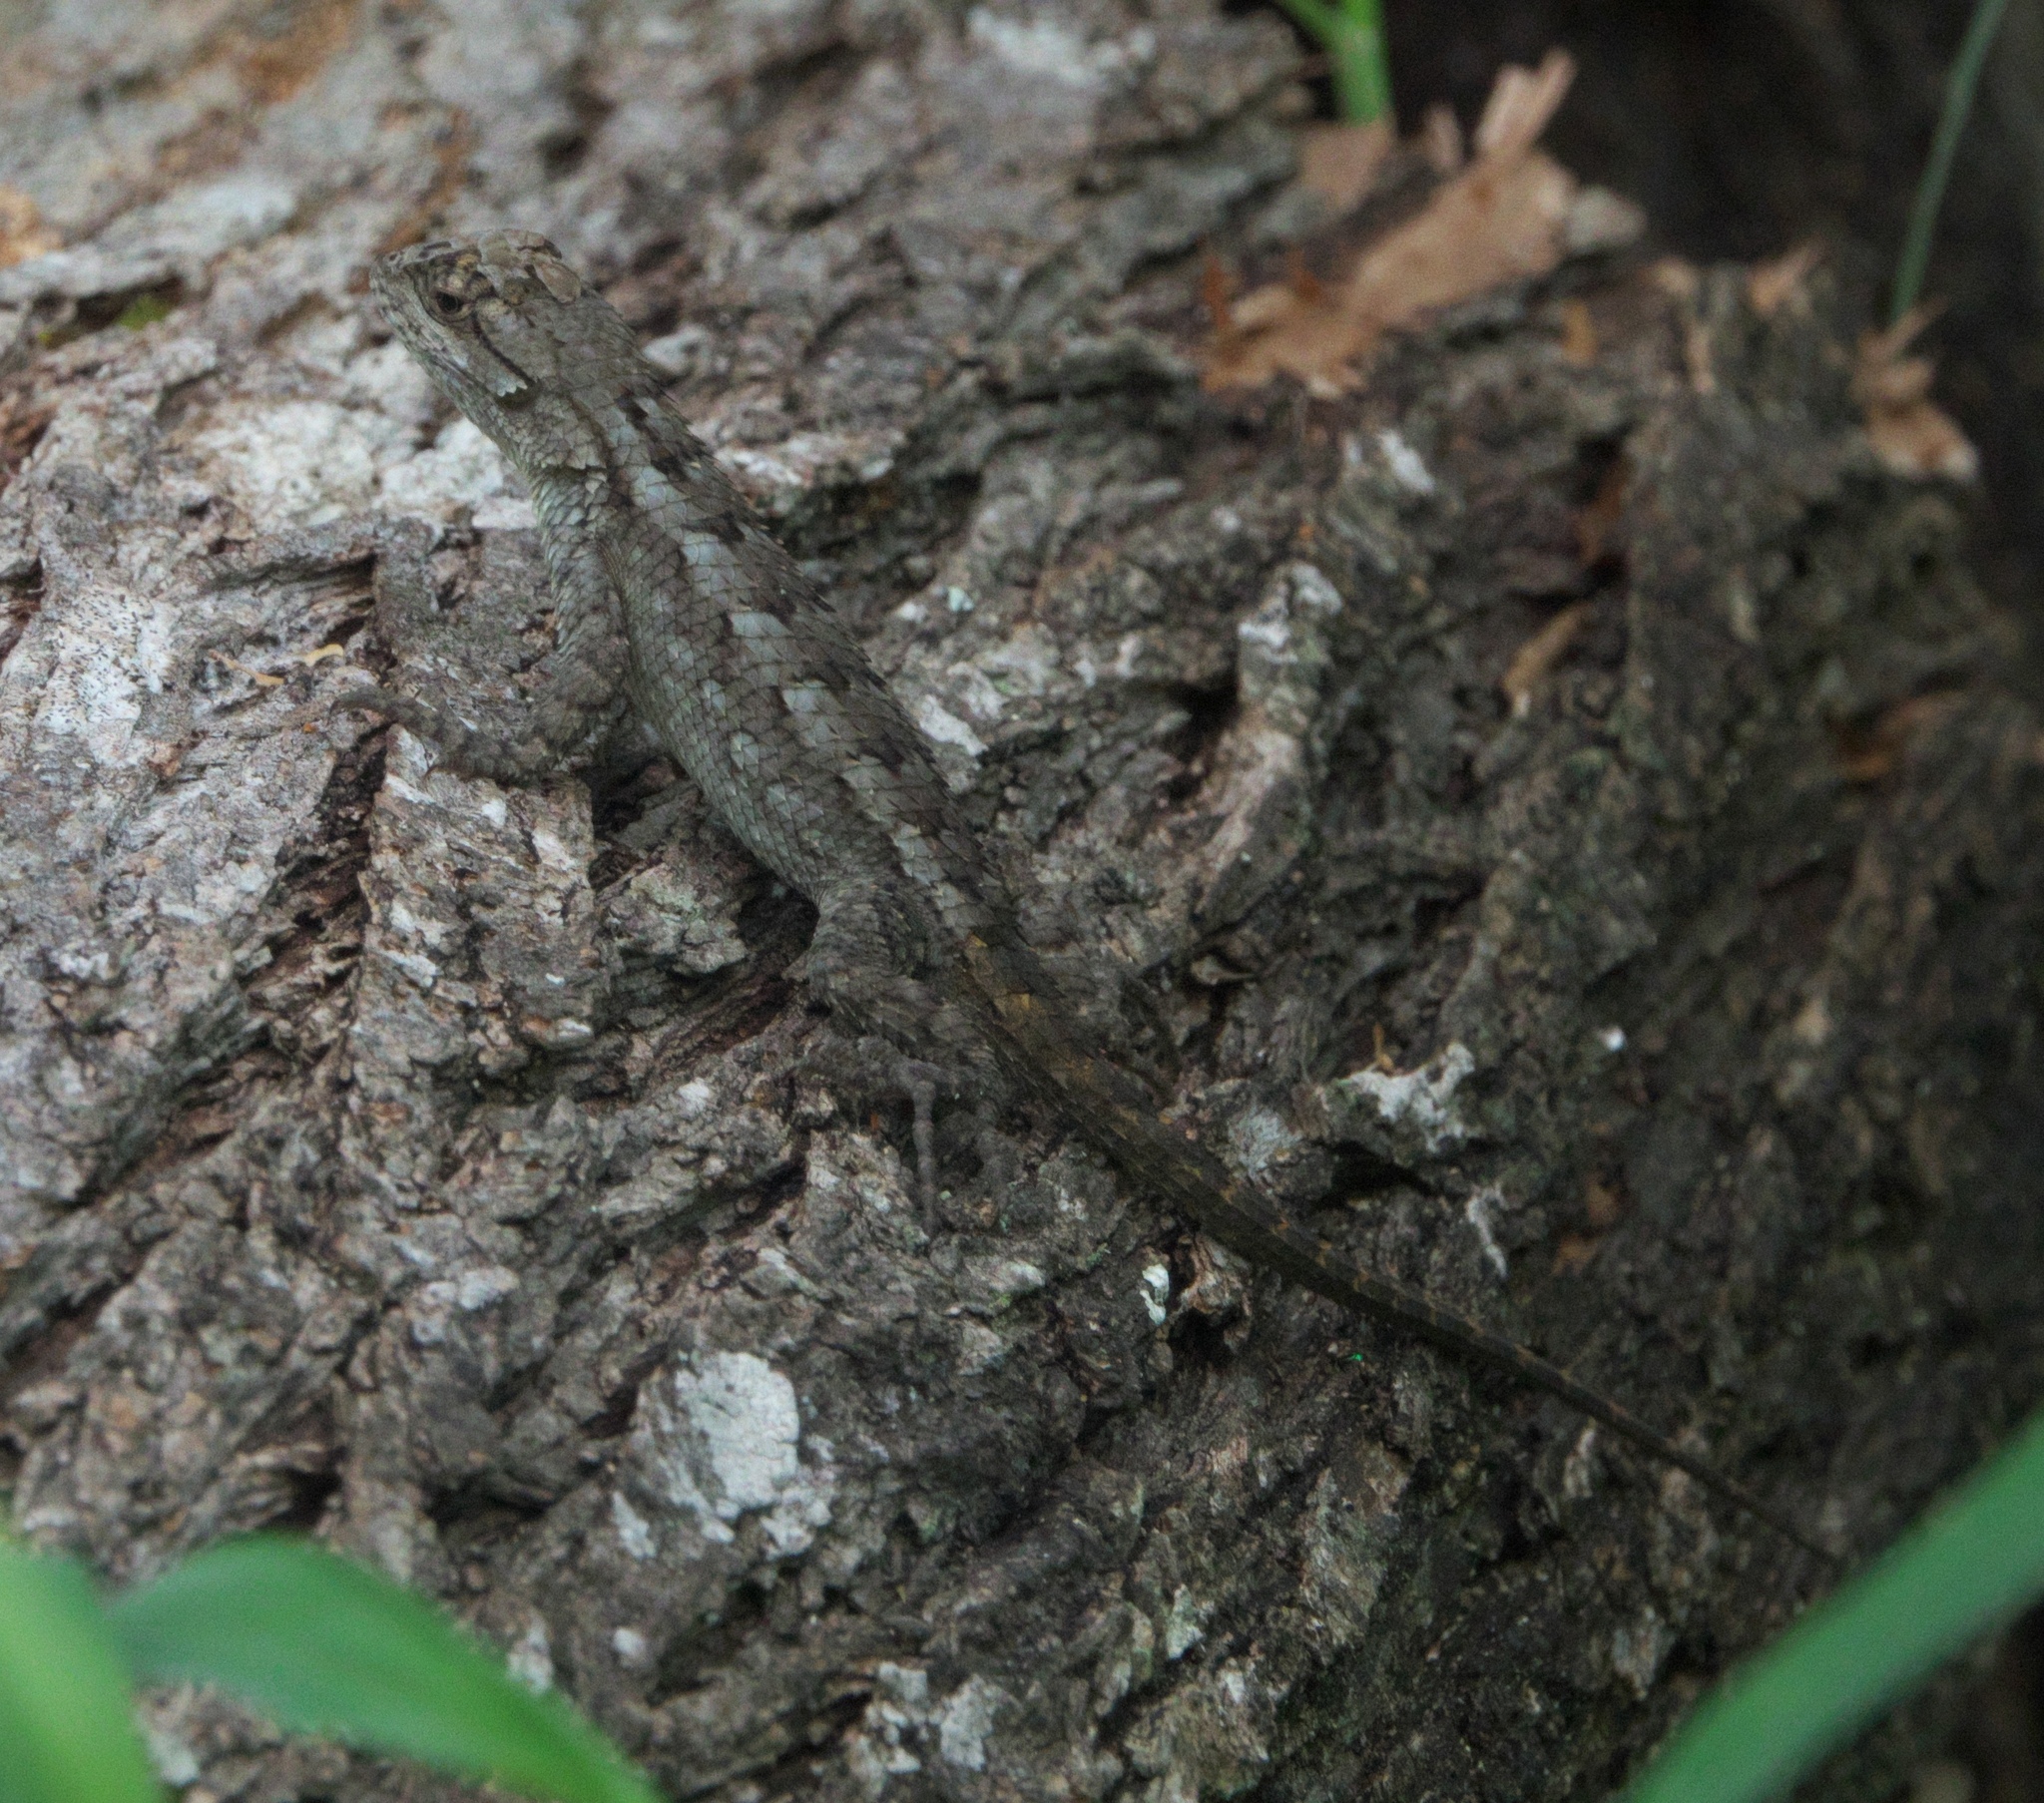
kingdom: Animalia
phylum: Chordata
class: Squamata
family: Phrynosomatidae
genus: Sceloporus
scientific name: Sceloporus olivaceus
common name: Texas spiny lizard
